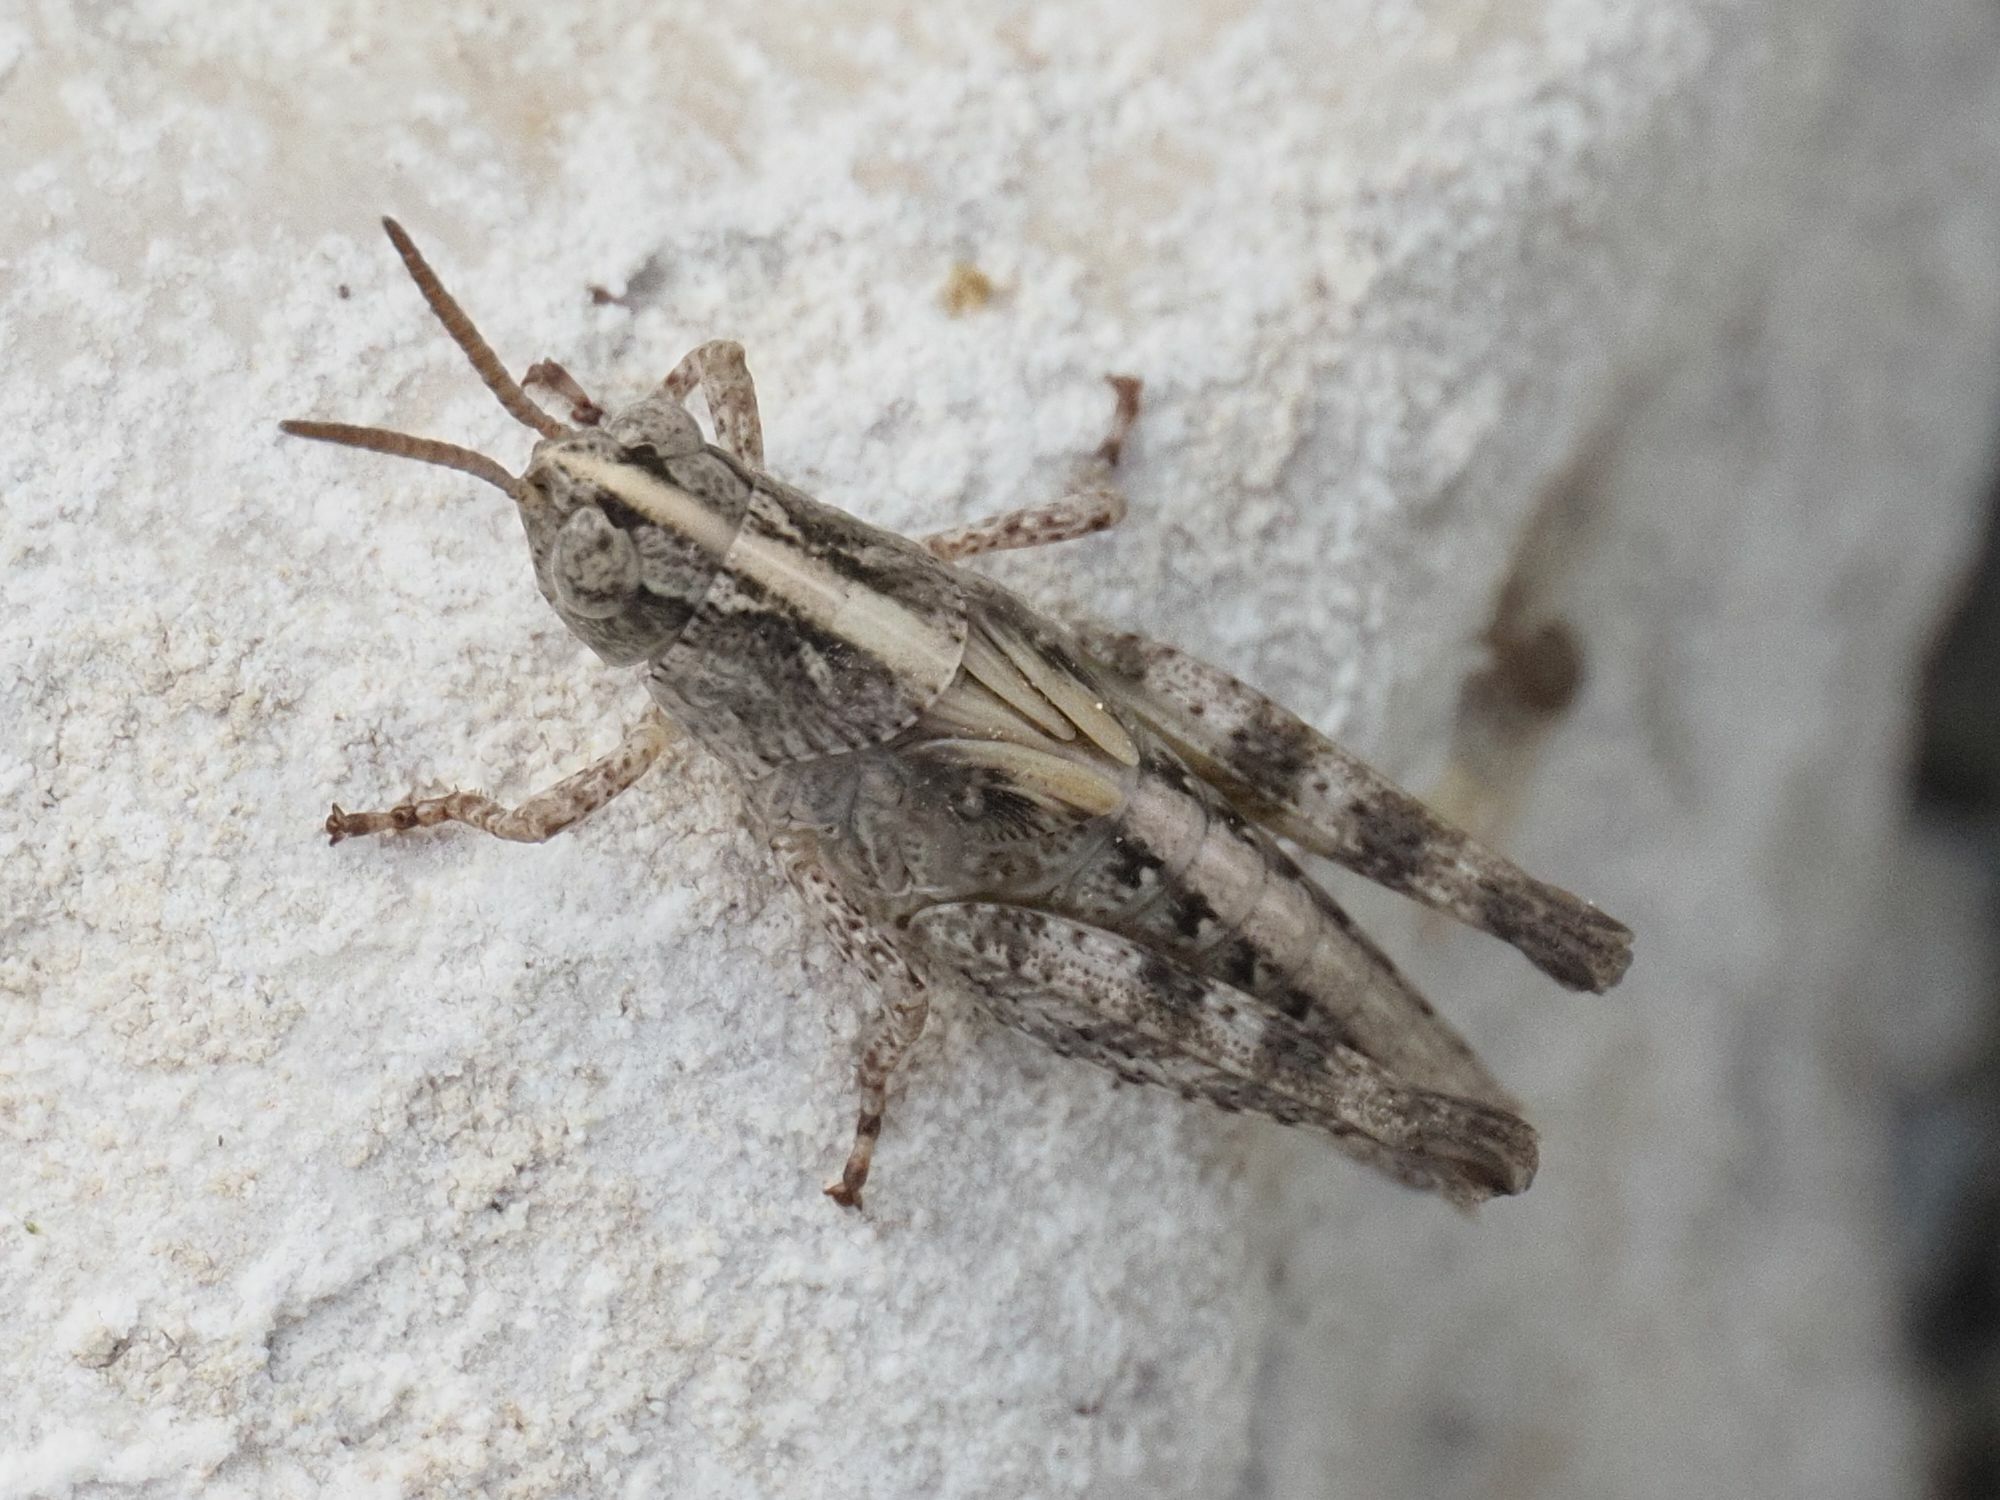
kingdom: Animalia
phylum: Arthropoda
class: Insecta
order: Orthoptera
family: Acrididae
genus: Aiolopus
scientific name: Aiolopus thalassinus
